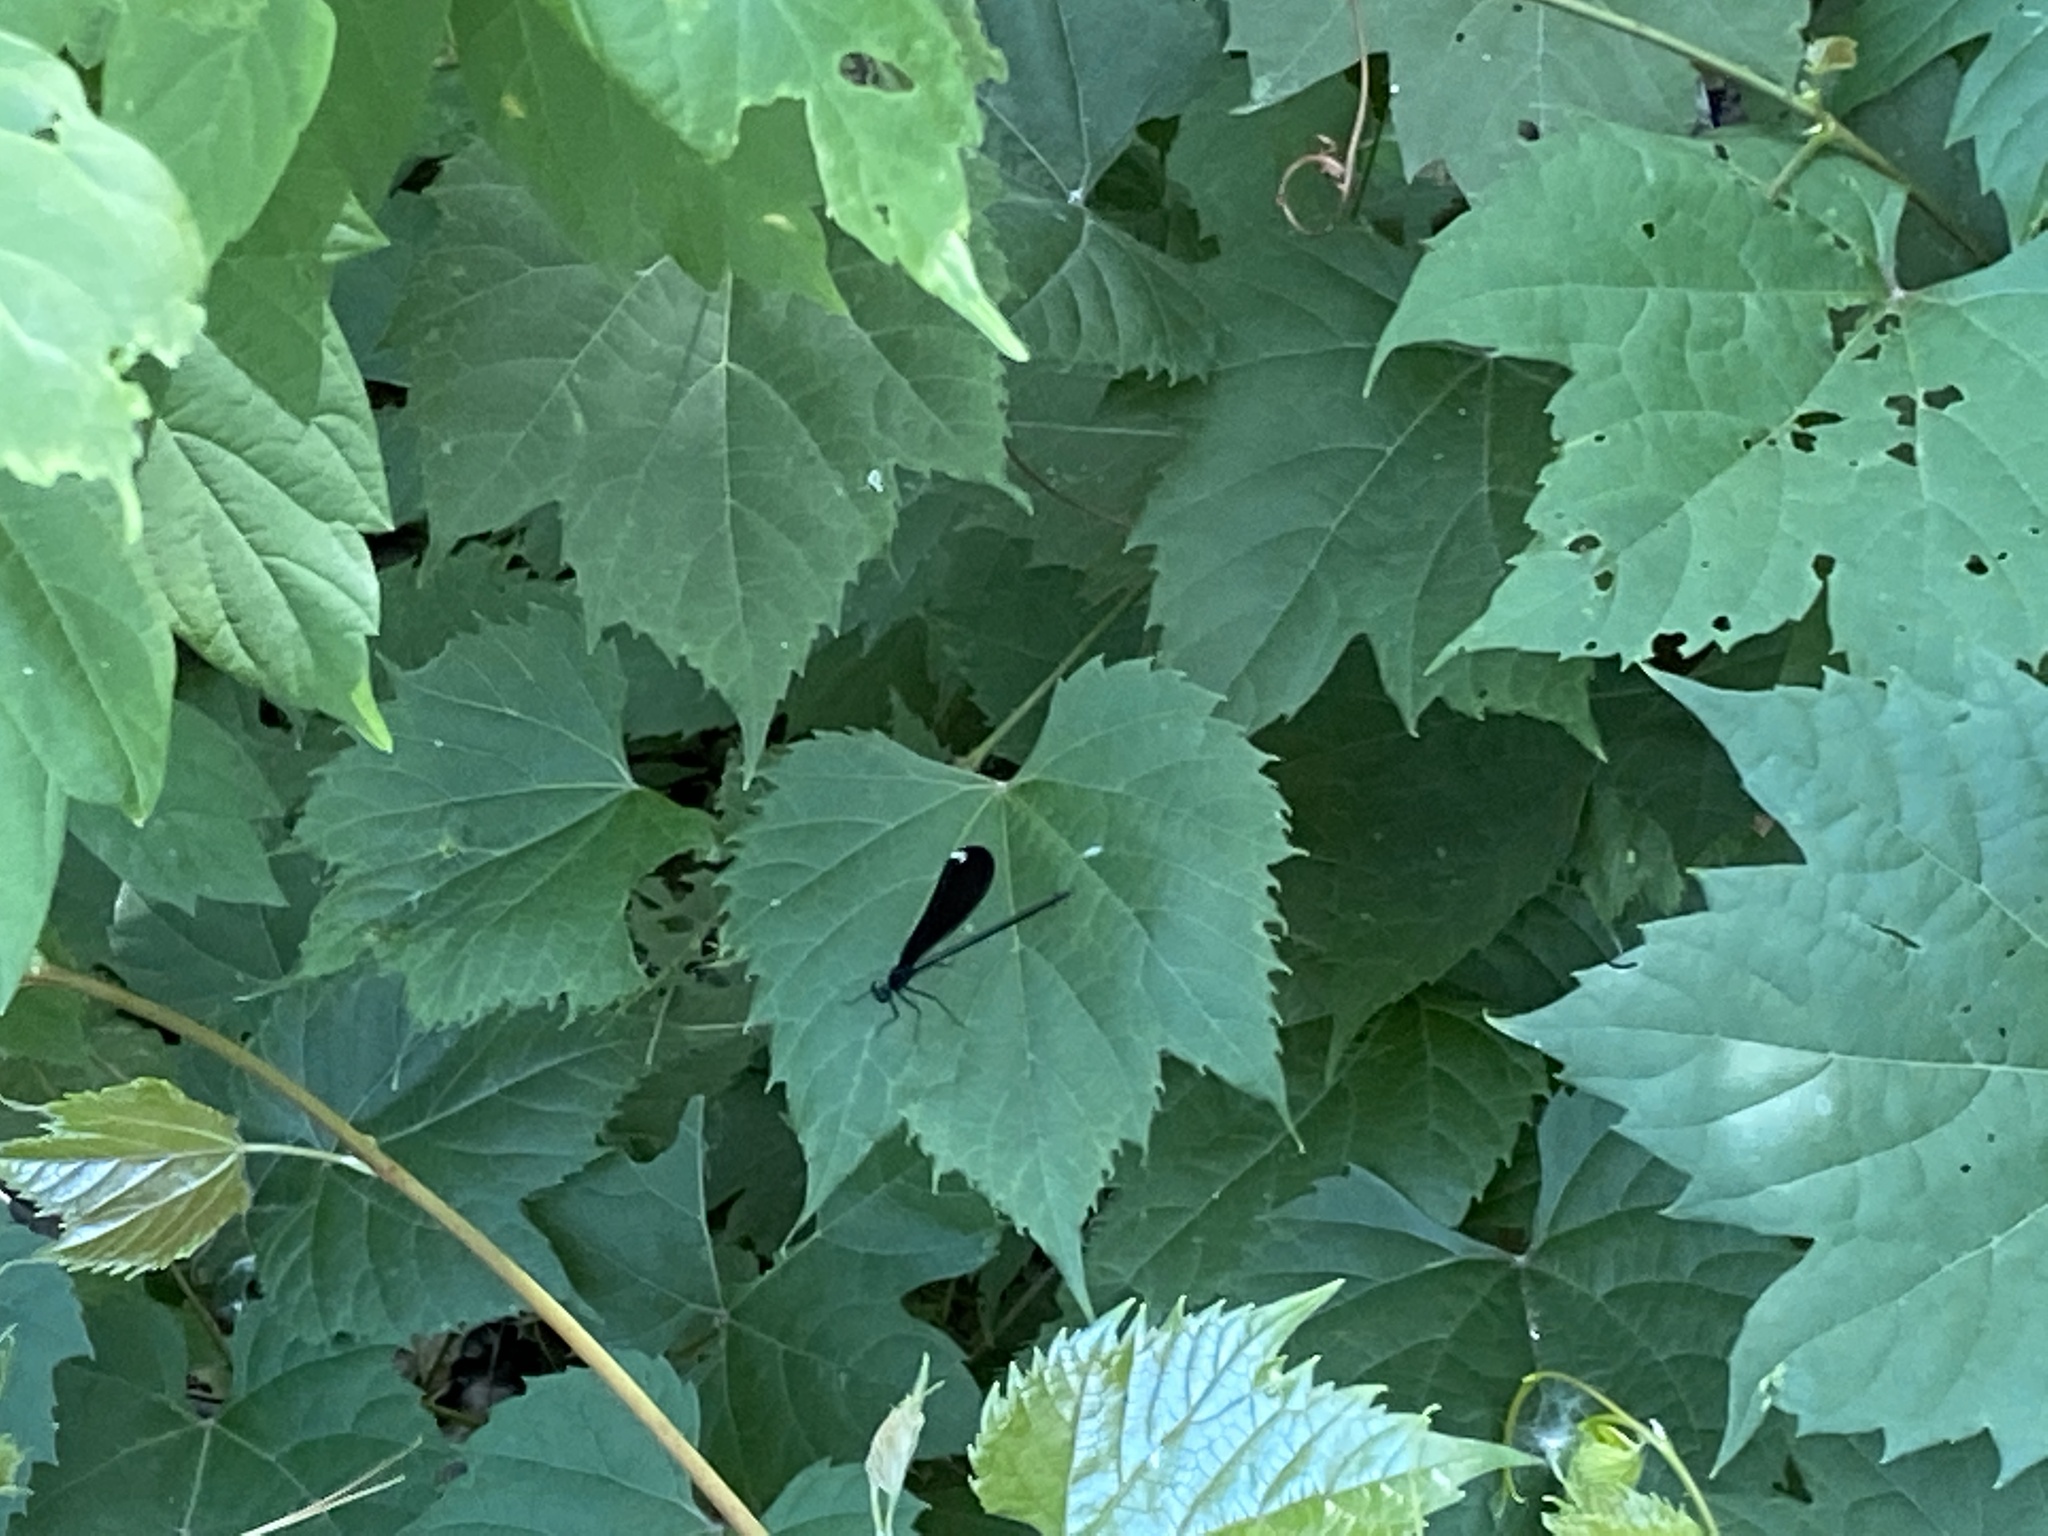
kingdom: Animalia
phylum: Arthropoda
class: Insecta
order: Odonata
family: Calopterygidae
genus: Calopteryx
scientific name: Calopteryx maculata
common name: Ebony jewelwing
